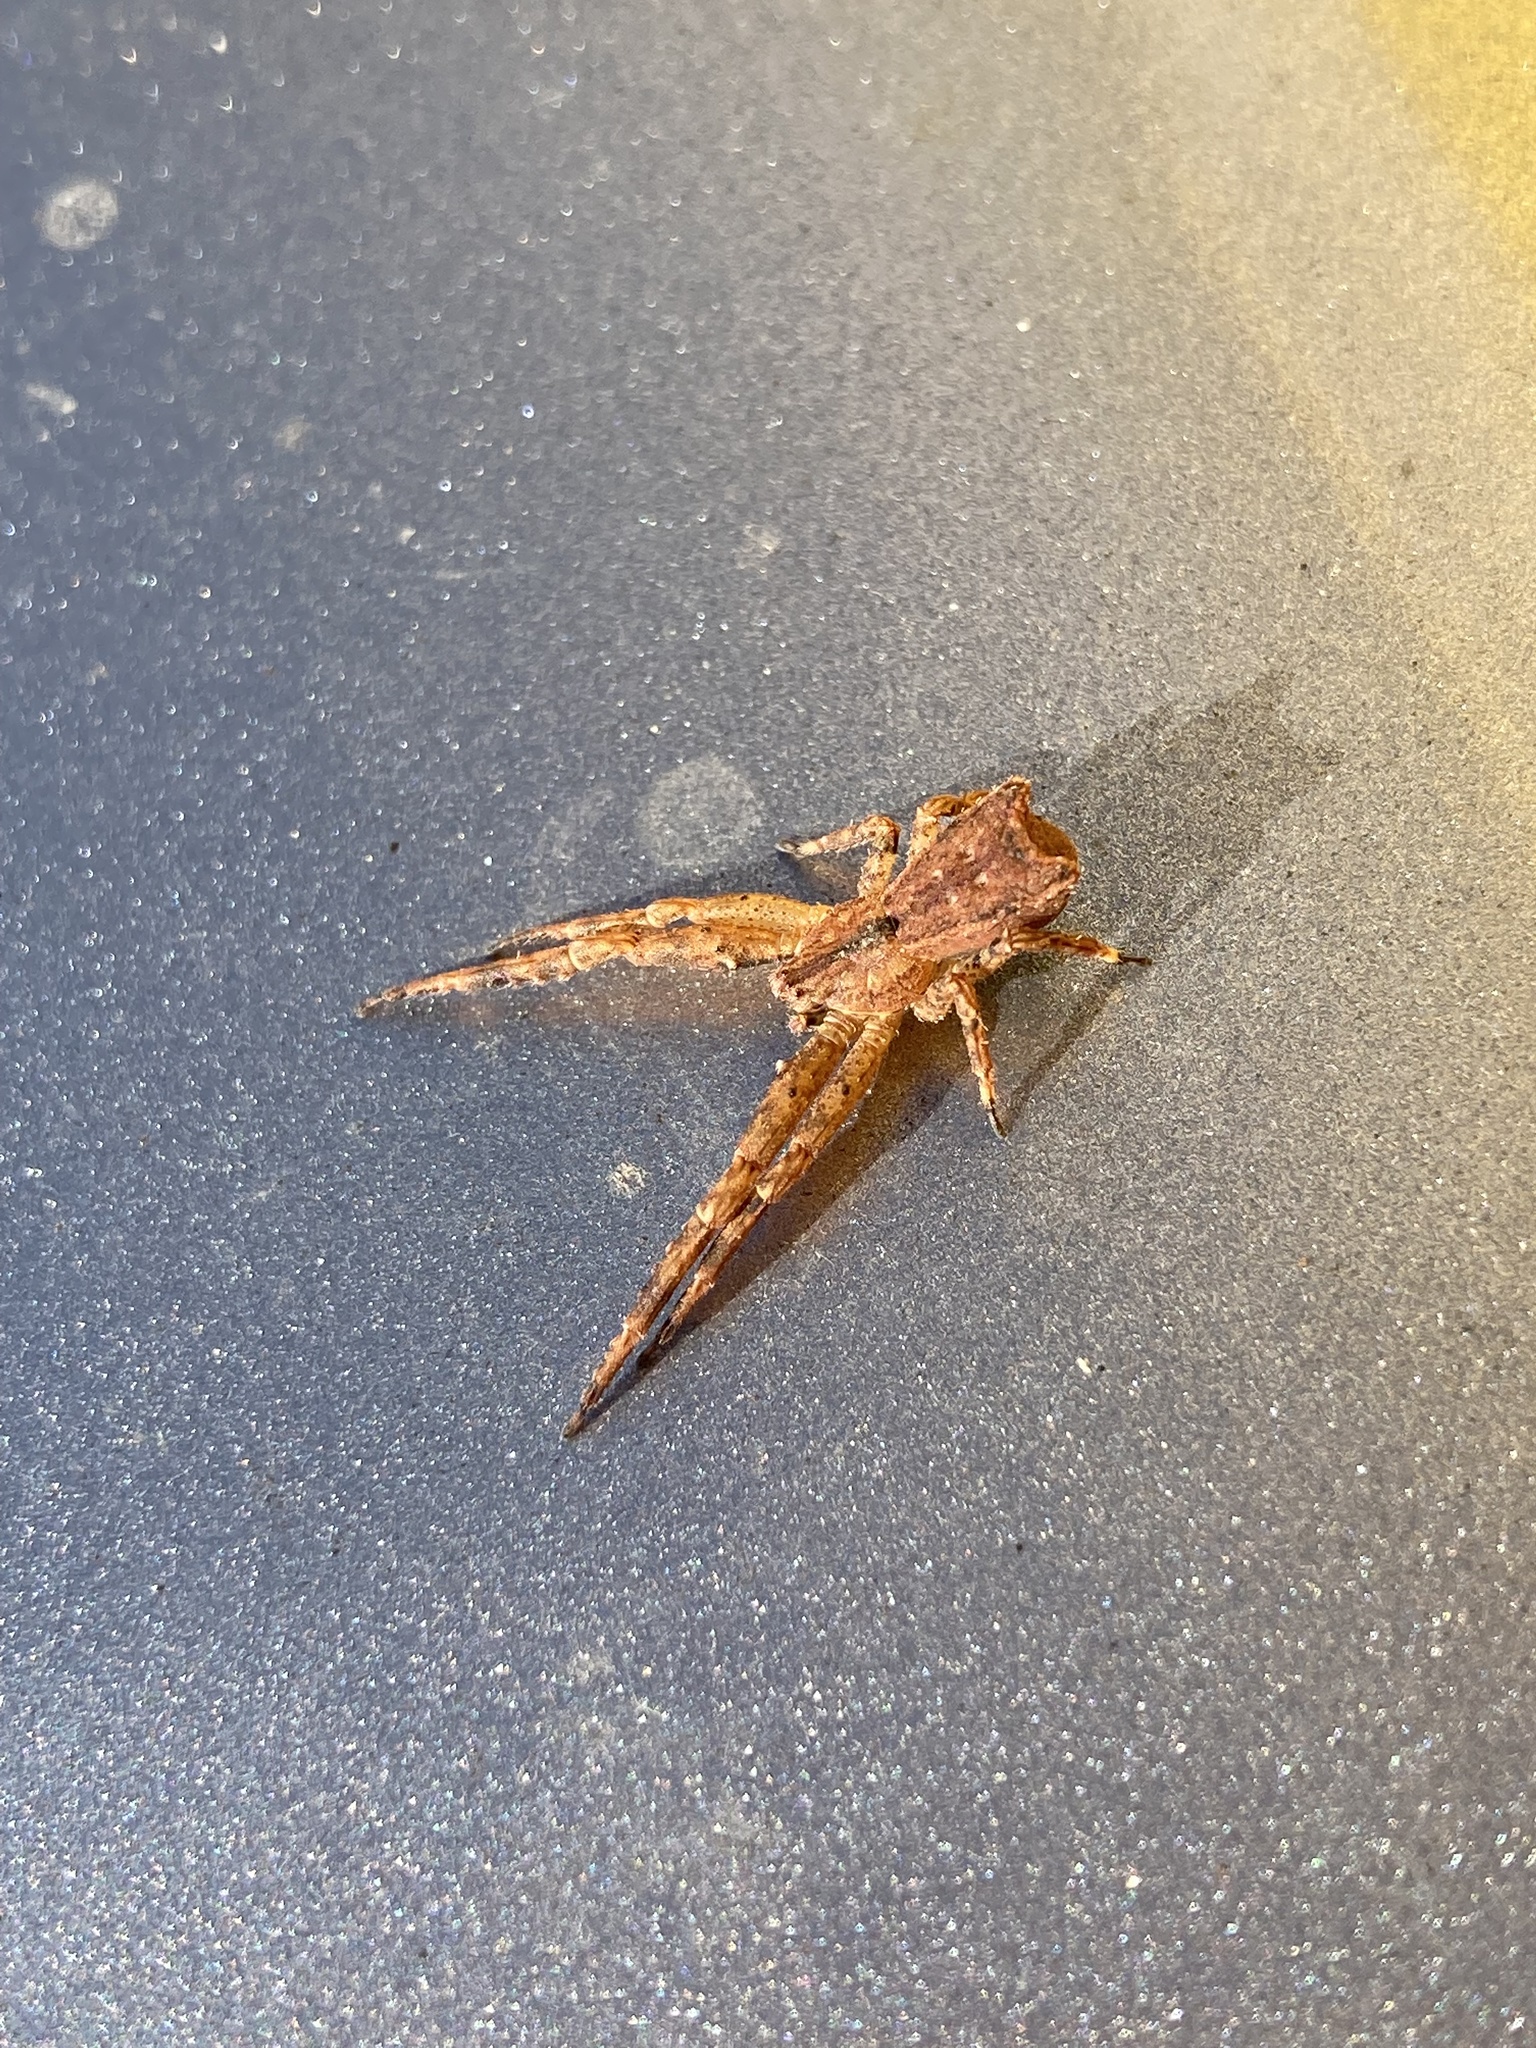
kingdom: Animalia
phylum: Arthropoda
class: Arachnida
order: Araneae
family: Thomisidae
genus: Sidymella
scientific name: Sidymella angularis
